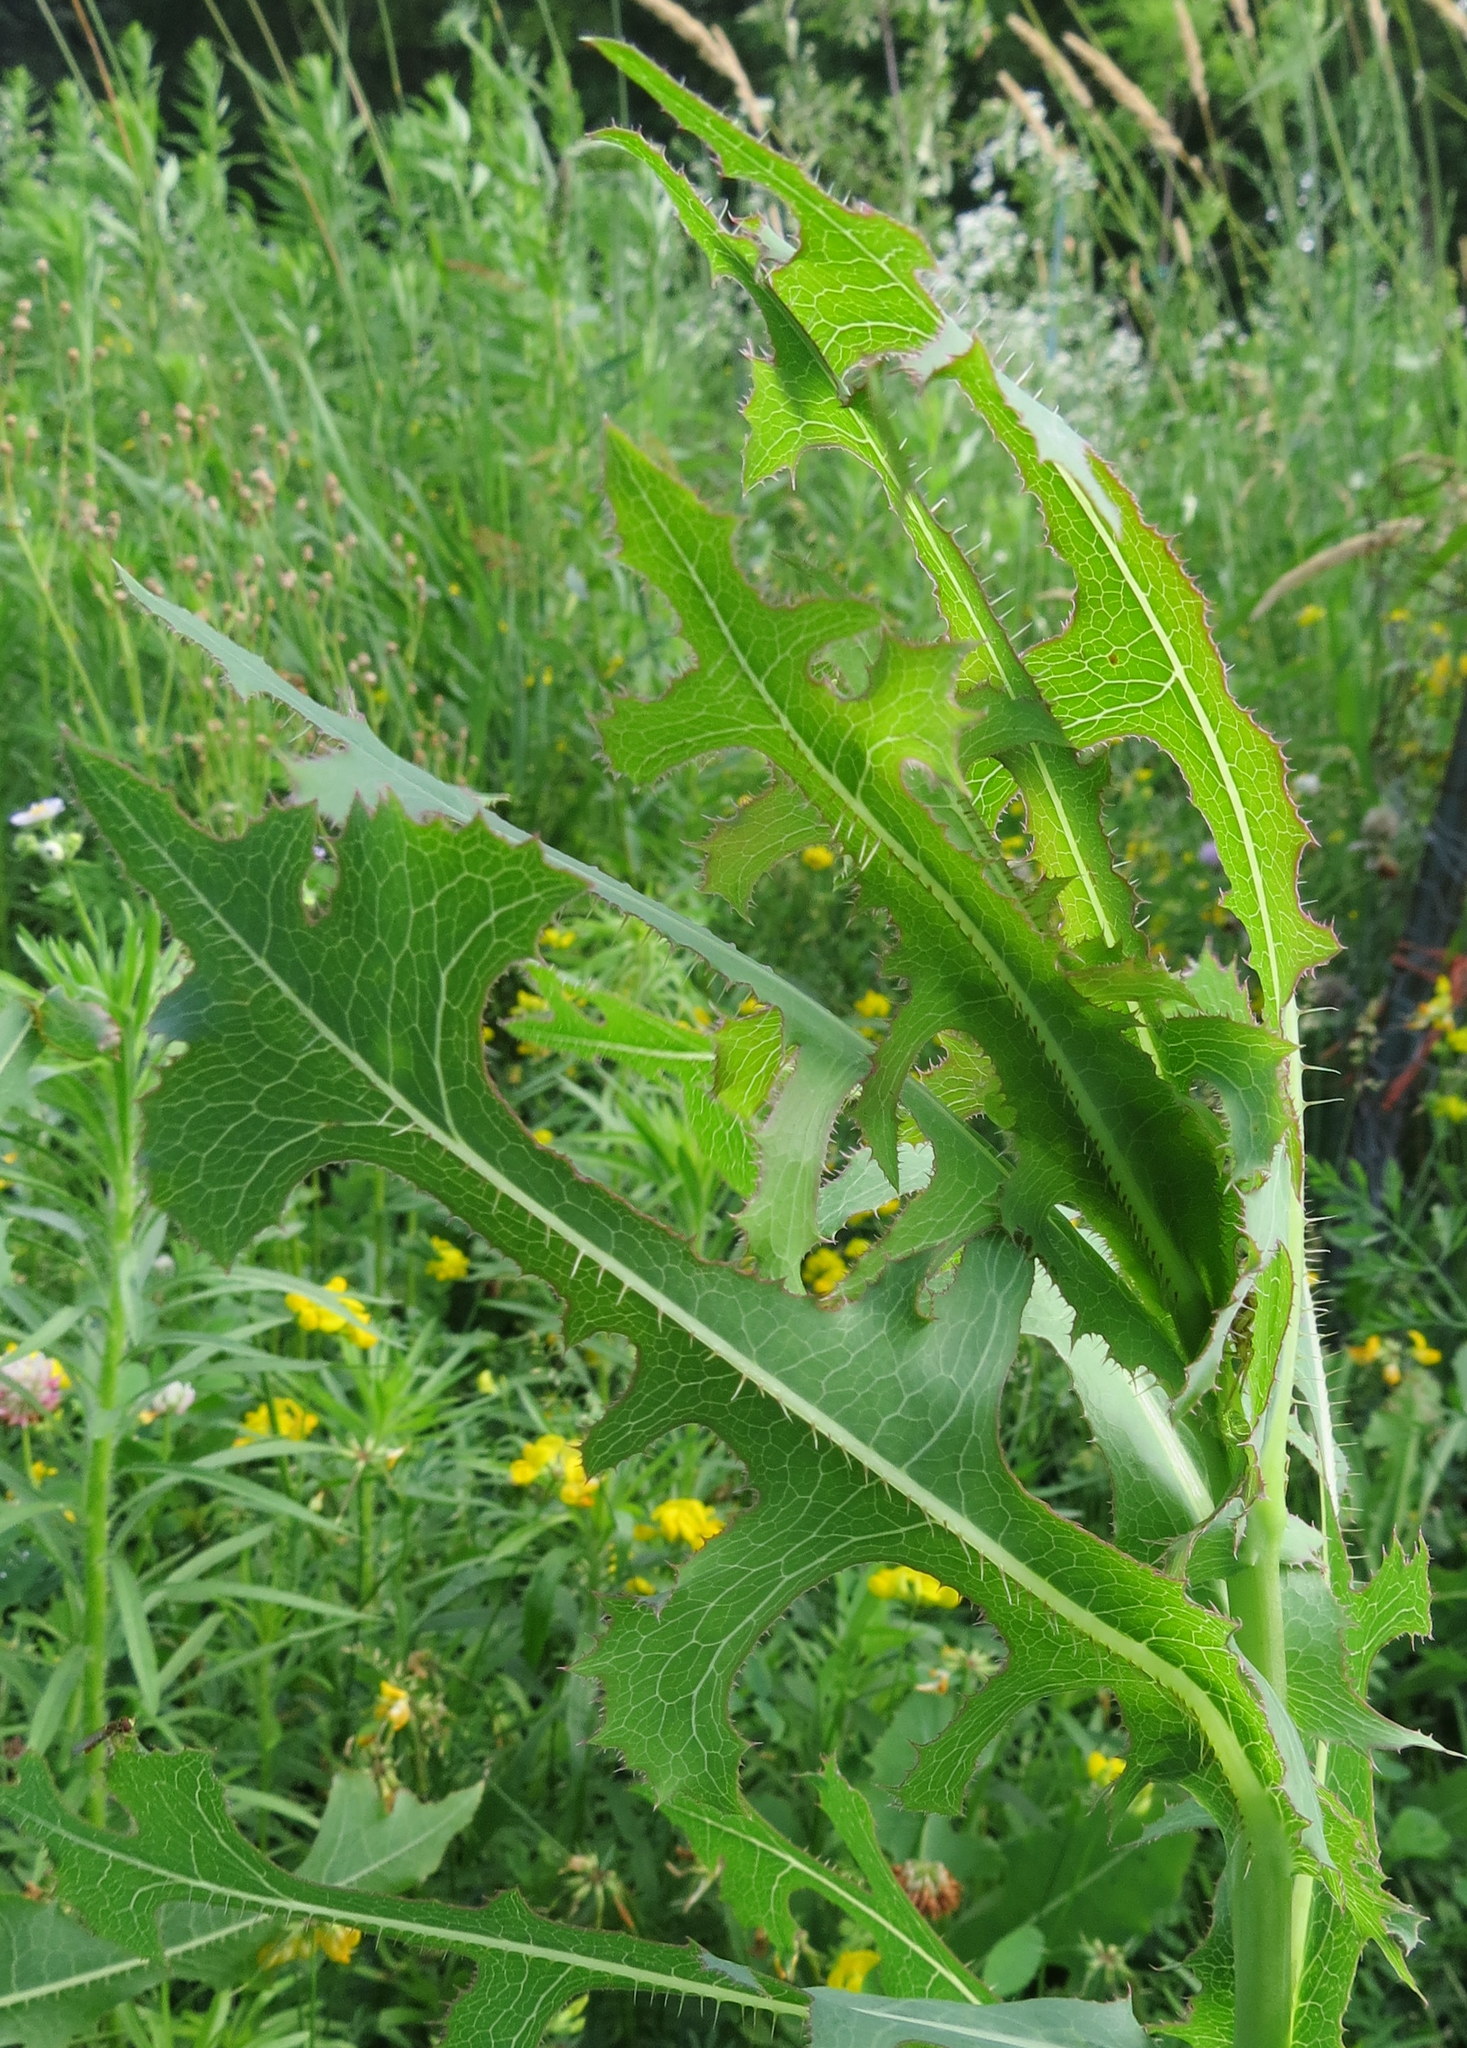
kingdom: Plantae
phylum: Tracheophyta
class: Magnoliopsida
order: Asterales
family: Asteraceae
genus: Lactuca
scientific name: Lactuca serriola
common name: Prickly lettuce
